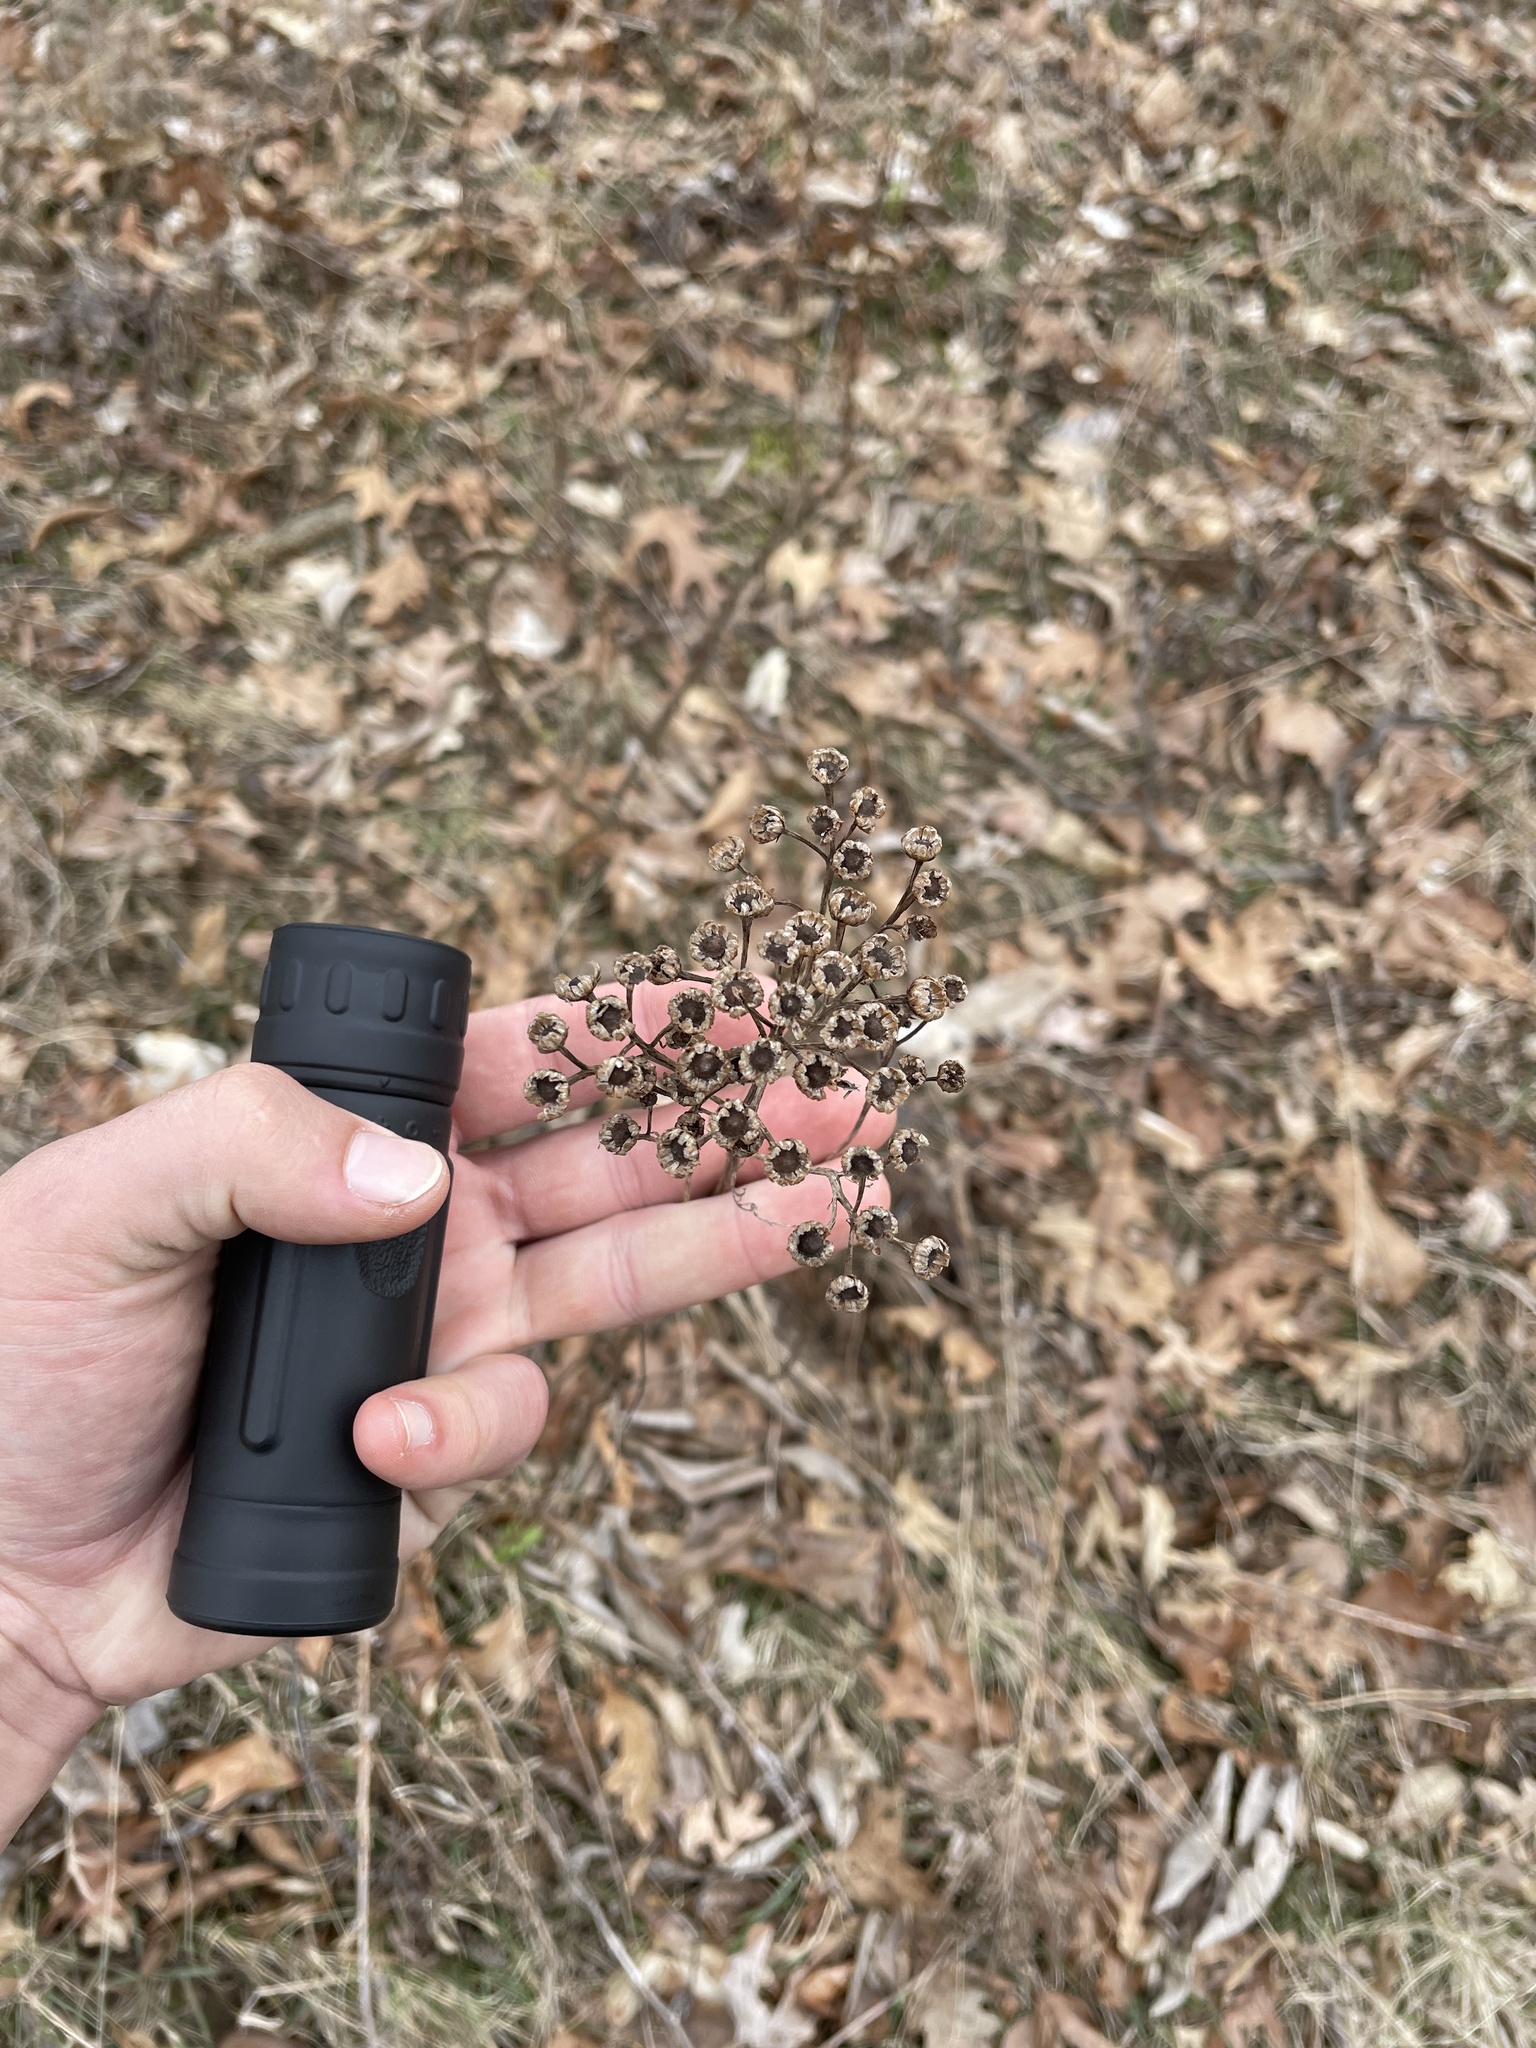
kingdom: Plantae
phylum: Tracheophyta
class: Magnoliopsida
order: Asterales
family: Asteraceae
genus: Tanacetum
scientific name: Tanacetum vulgare
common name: Common tansy
